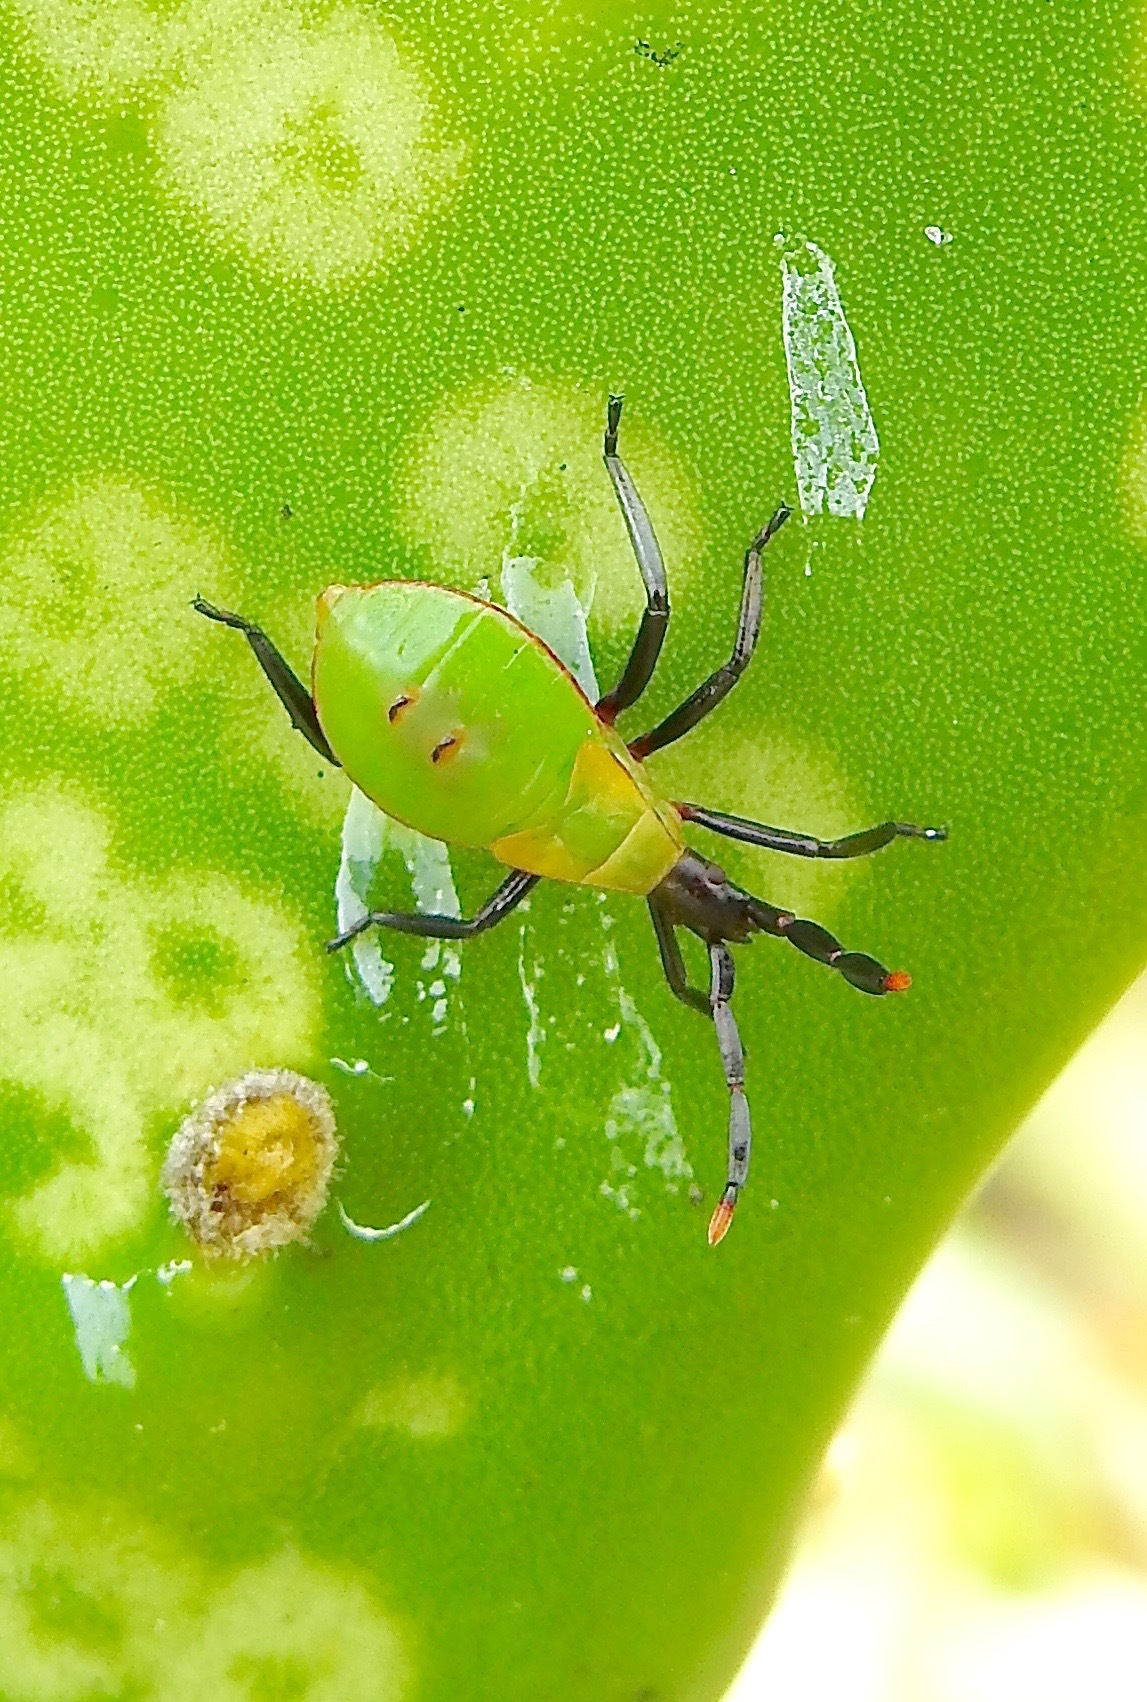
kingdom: Animalia
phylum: Arthropoda
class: Insecta
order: Hemiptera
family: Coreidae
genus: Chelinidea
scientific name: Chelinidea vittiger
